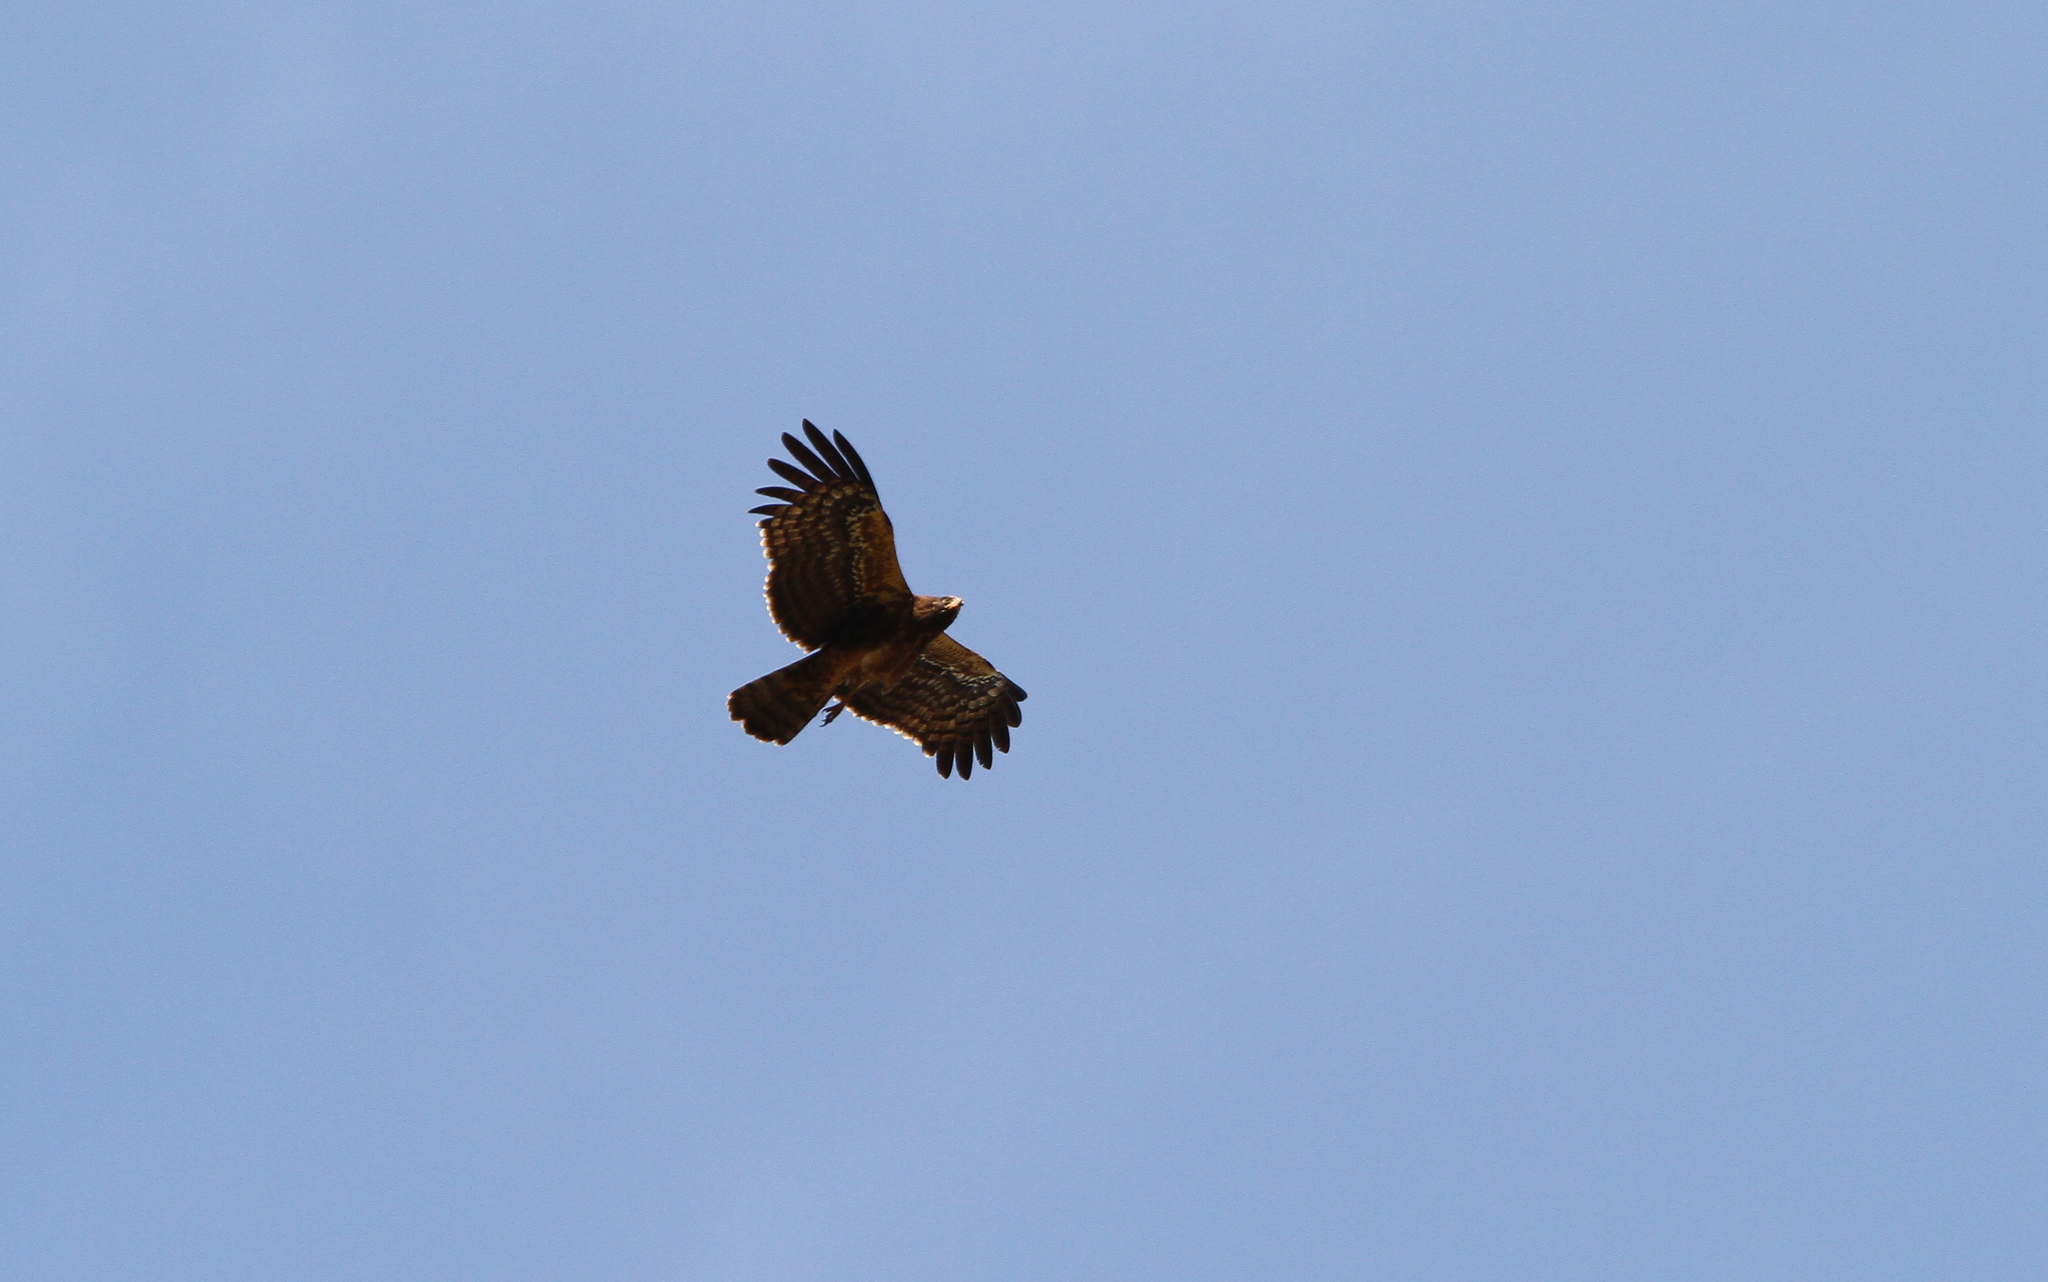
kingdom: Animalia
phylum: Chordata
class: Aves
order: Accipitriformes
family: Accipitridae
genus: Polyboroides
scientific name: Polyboroides typus
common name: African harrier-hawk
